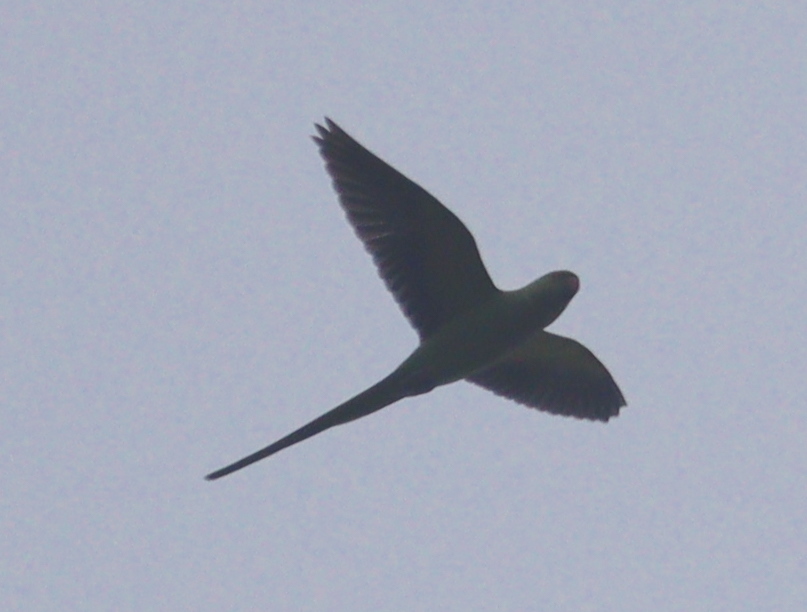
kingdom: Animalia
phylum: Chordata
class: Aves
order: Psittaciformes
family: Psittacidae
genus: Psittacula
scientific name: Psittacula krameri
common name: Rose-ringed parakeet
